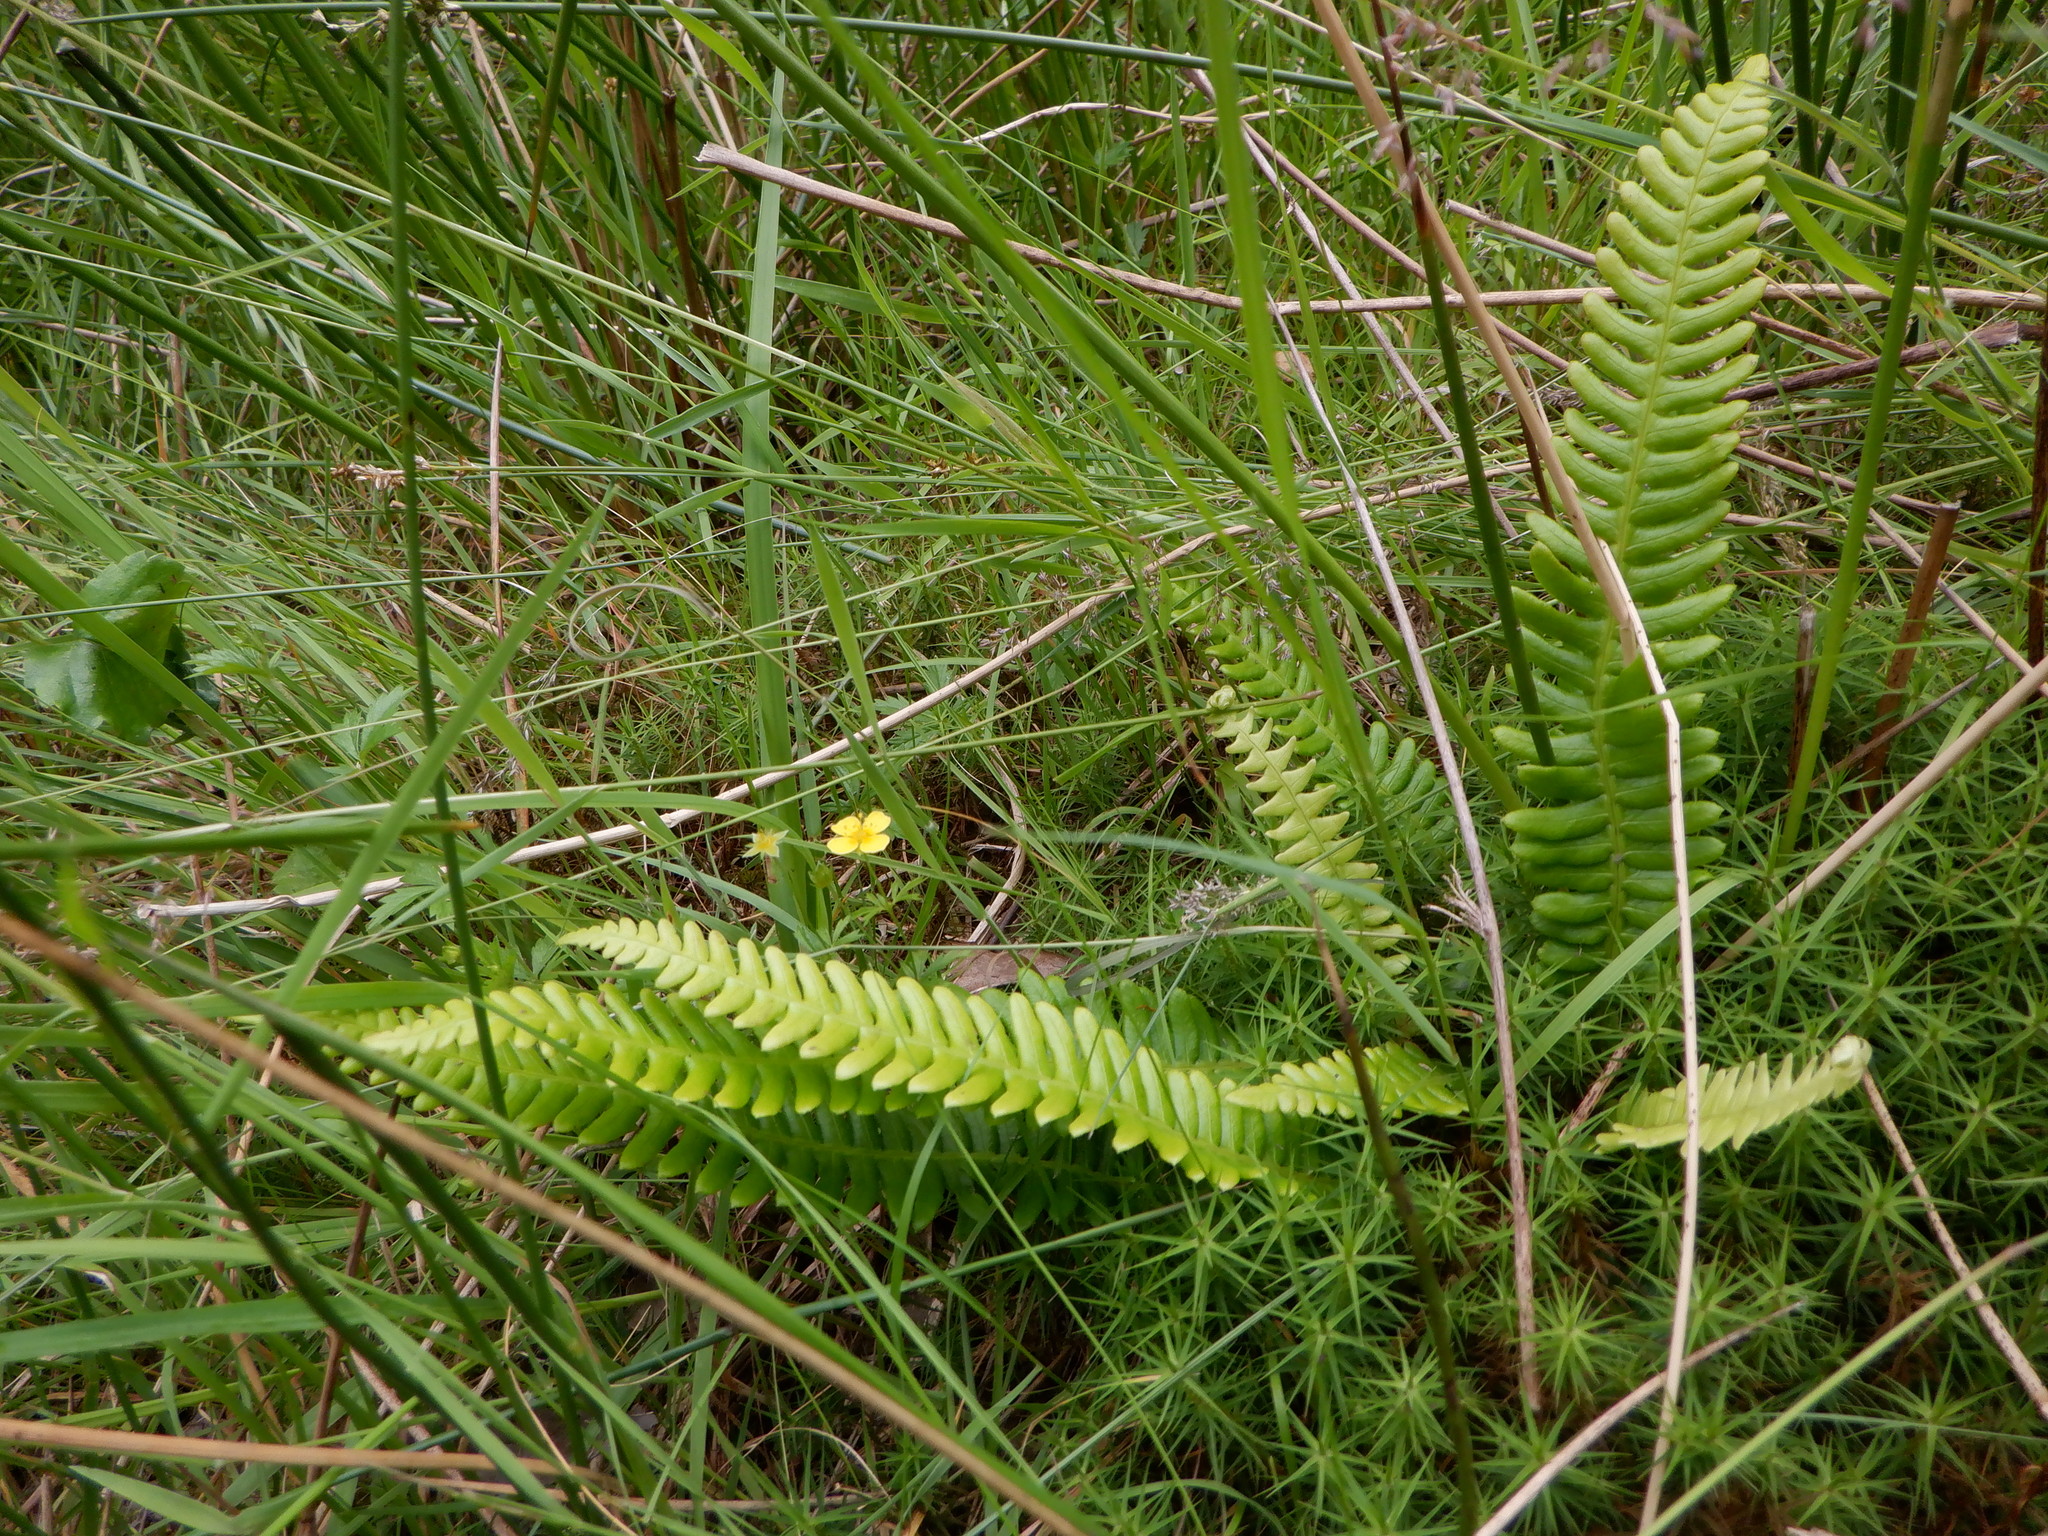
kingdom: Plantae
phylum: Tracheophyta
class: Polypodiopsida
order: Polypodiales
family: Blechnaceae
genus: Struthiopteris
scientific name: Struthiopteris spicant
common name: Deer fern
